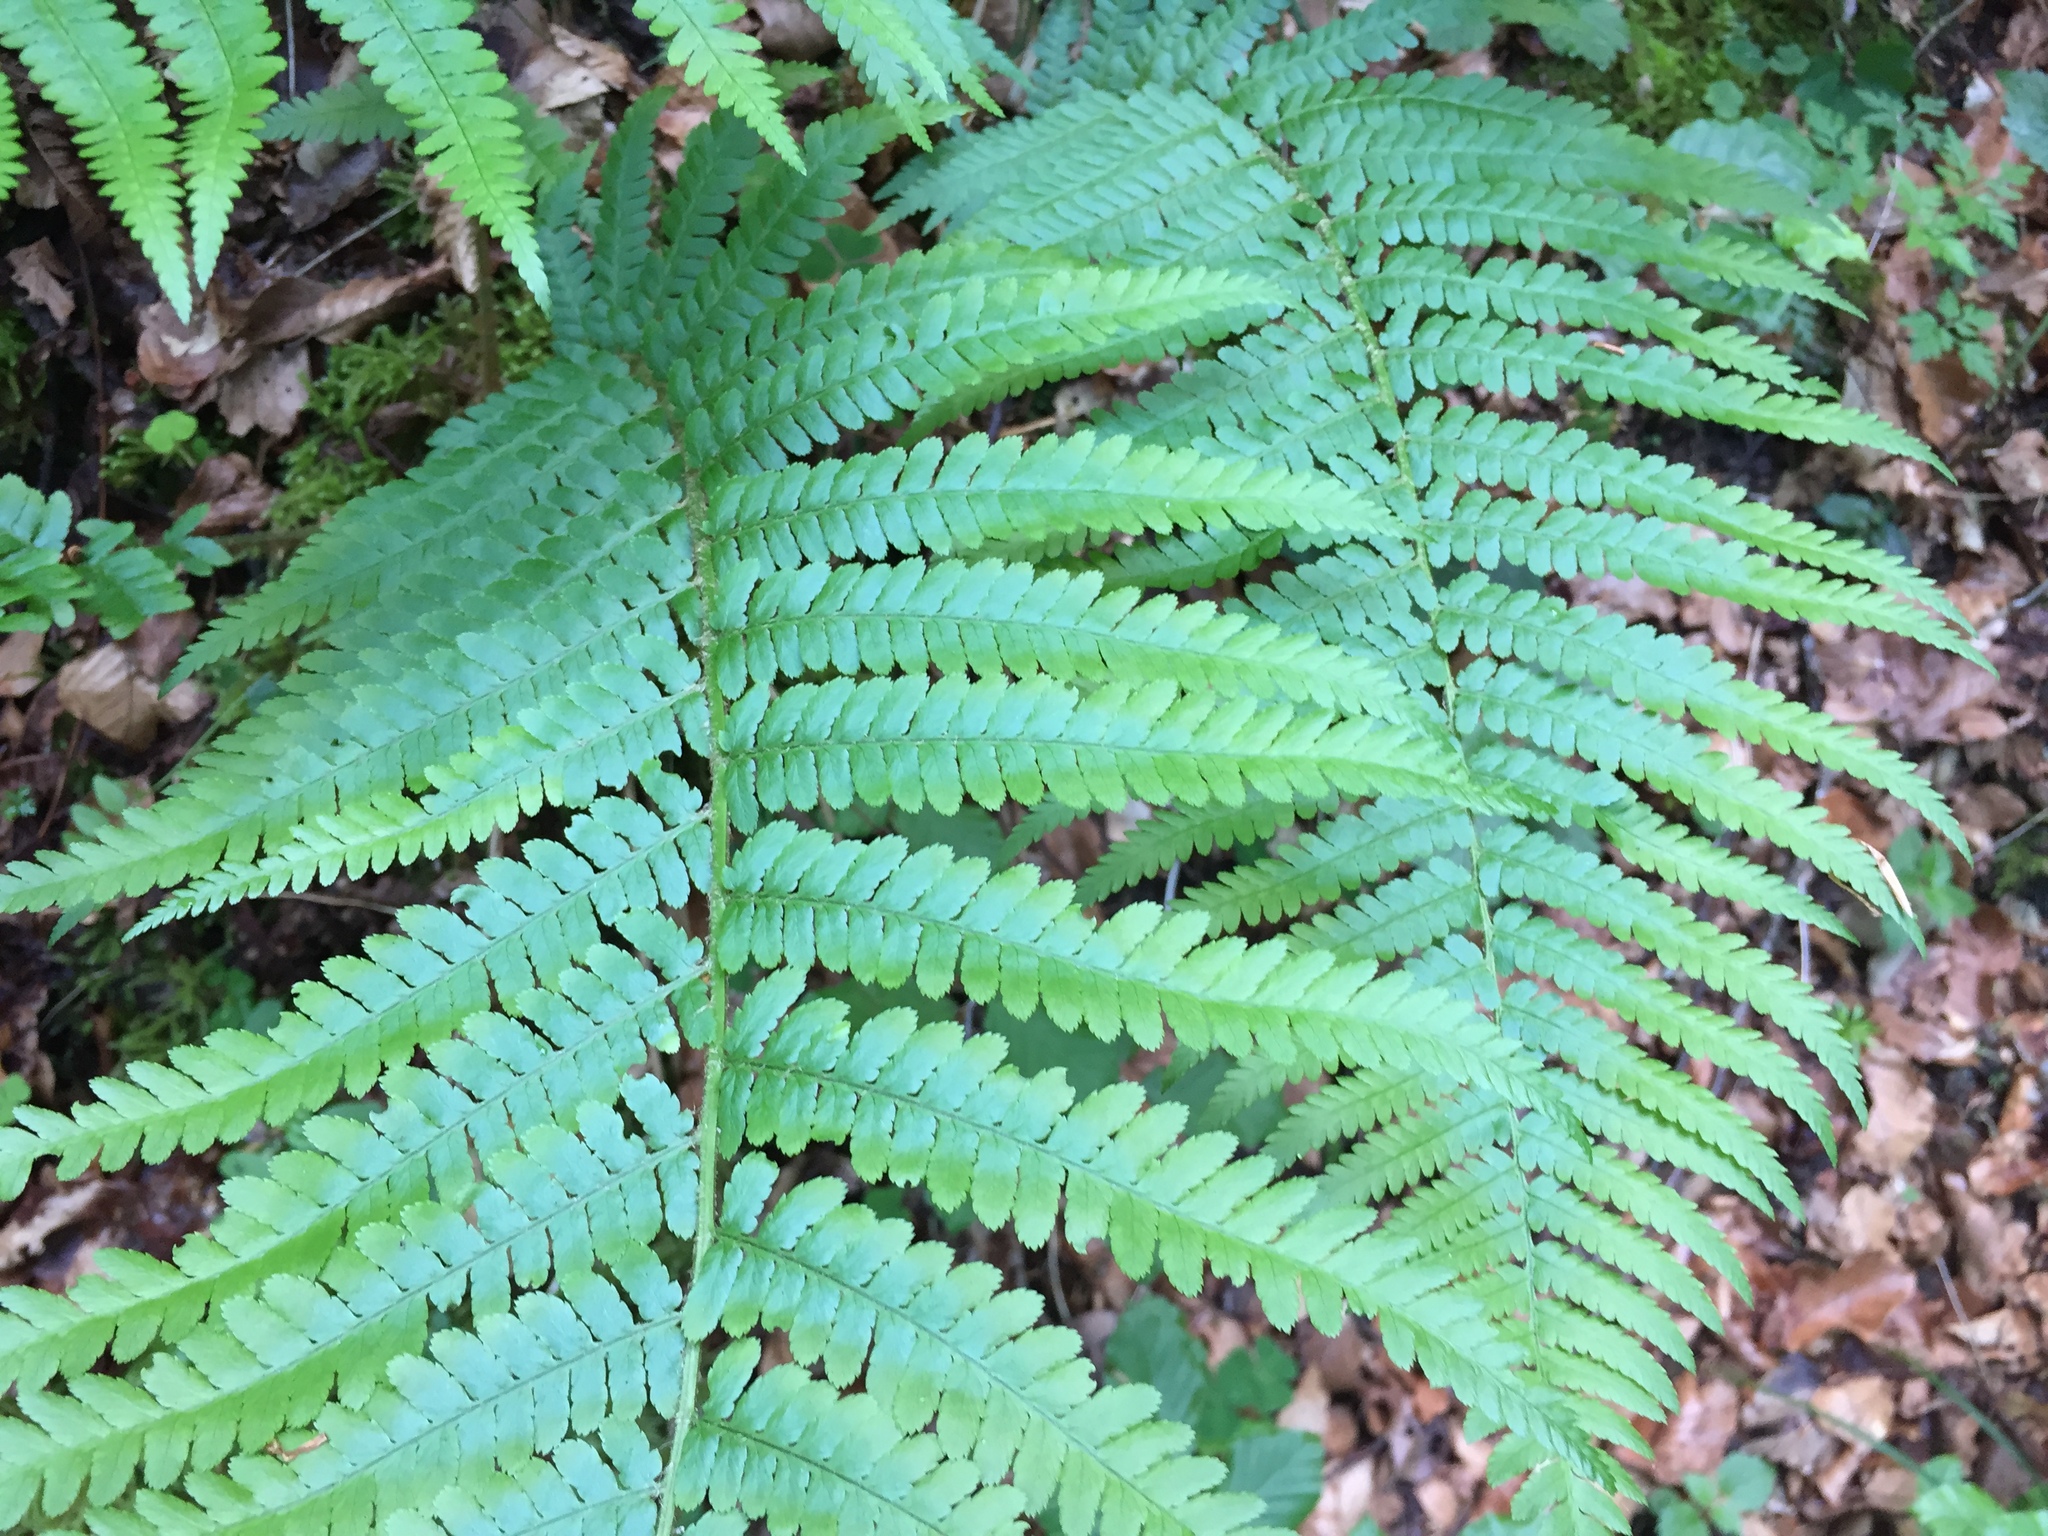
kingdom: Plantae
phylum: Tracheophyta
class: Polypodiopsida
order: Polypodiales
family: Dryopteridaceae
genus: Dryopteris
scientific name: Dryopteris filix-mas
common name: Male fern
